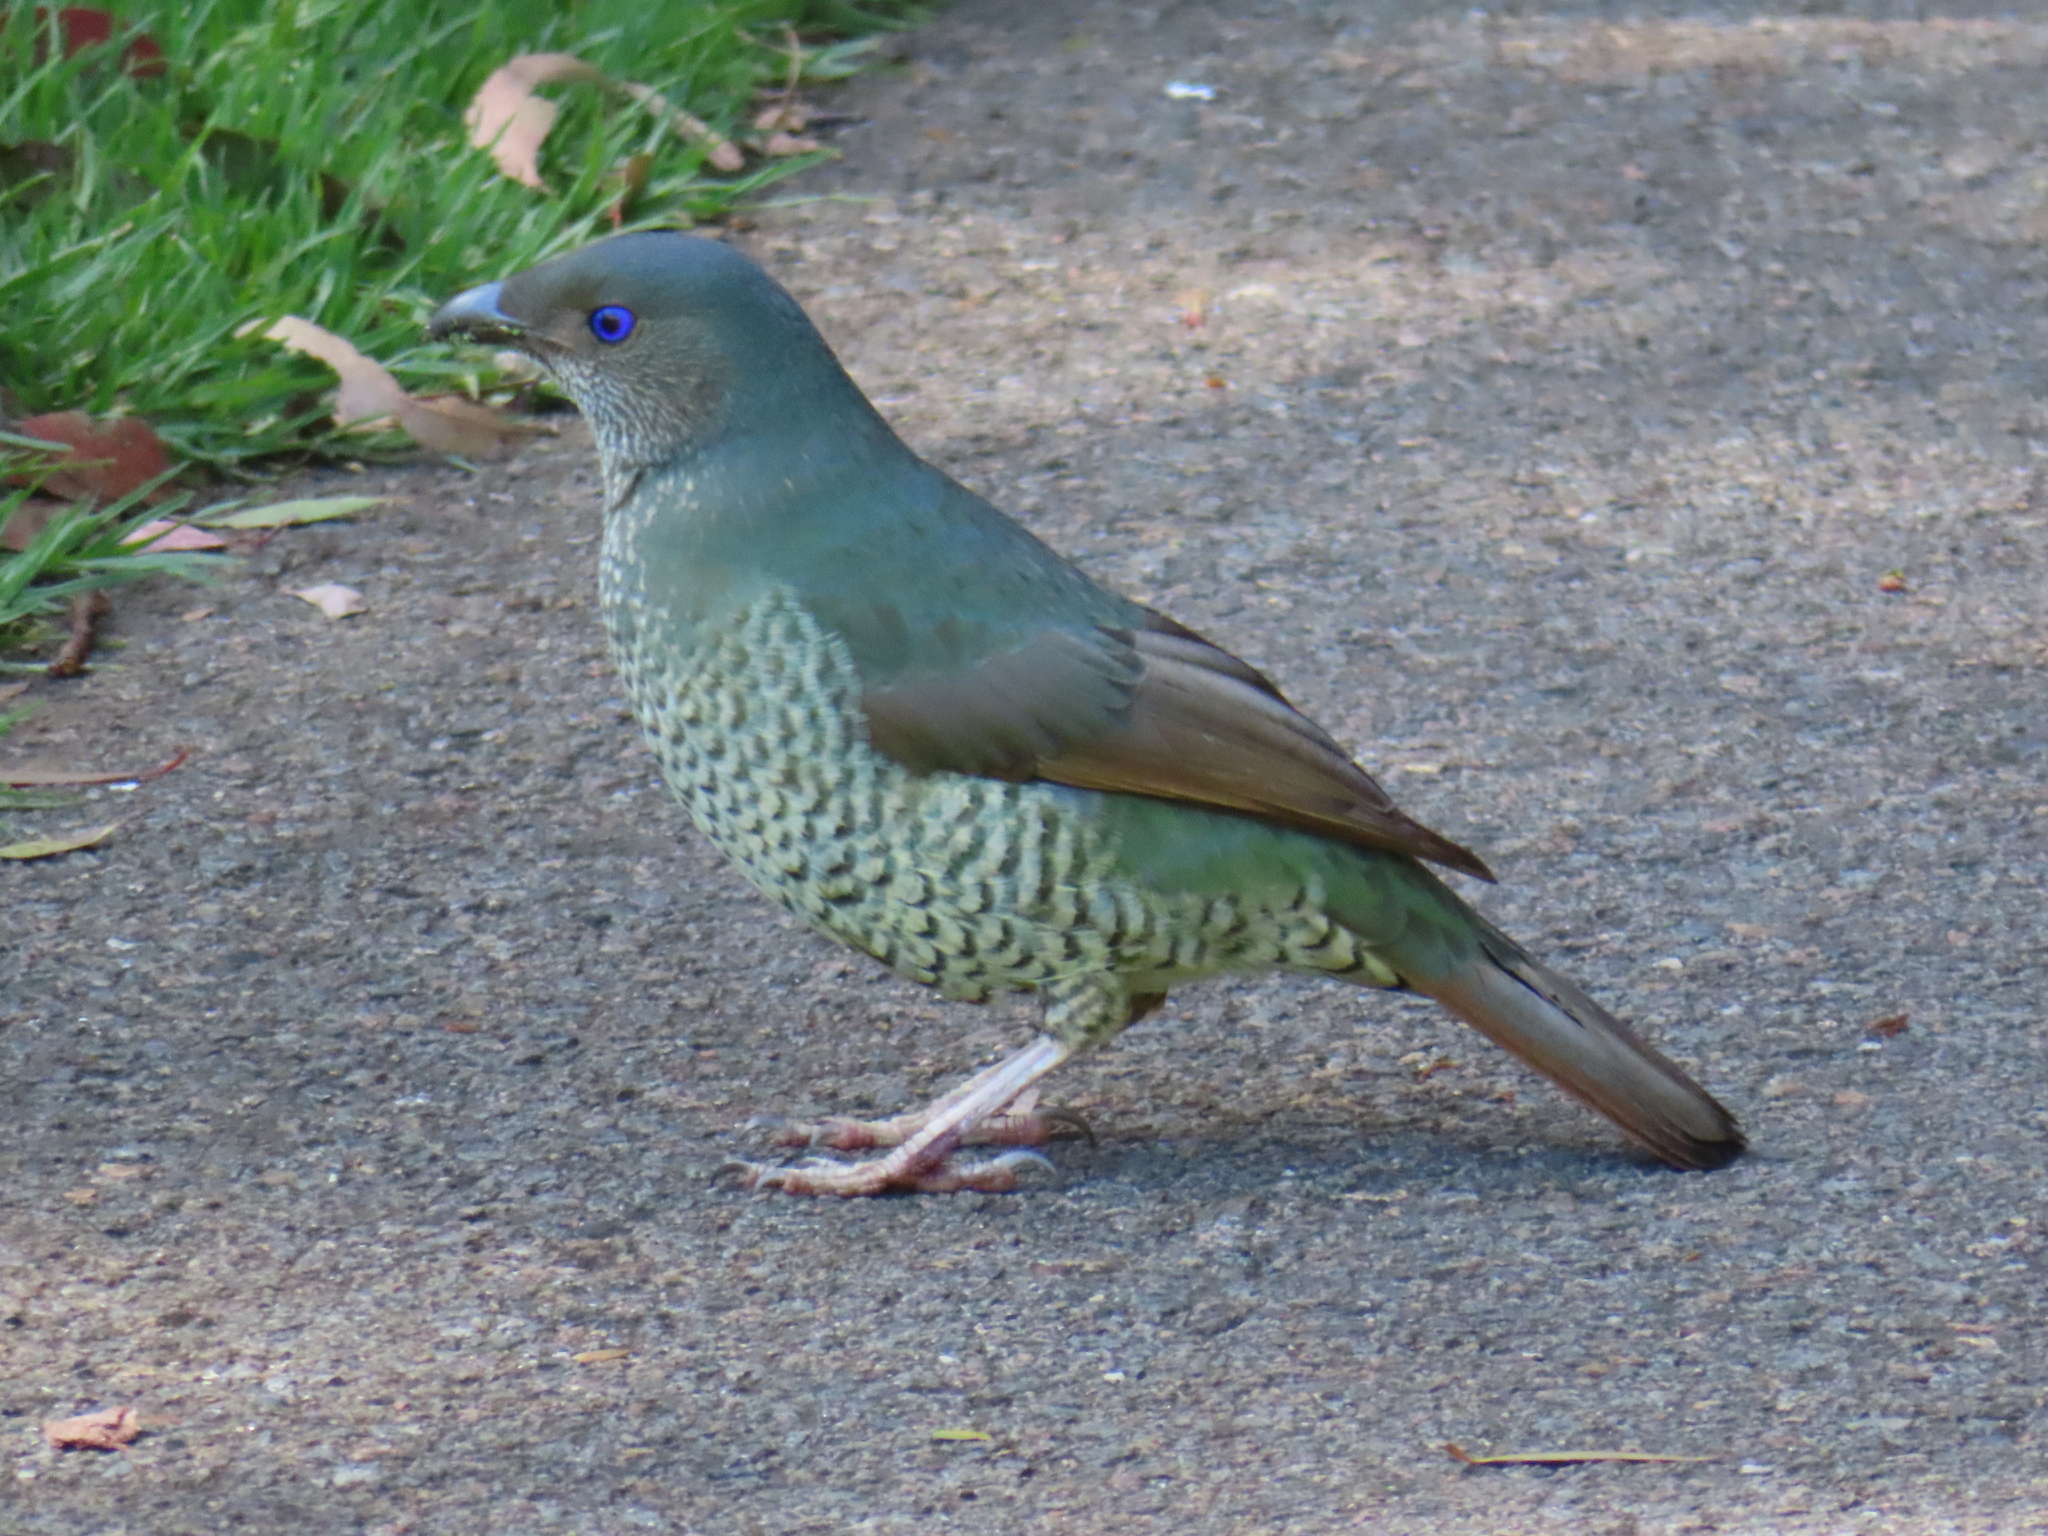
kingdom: Animalia
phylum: Chordata
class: Aves
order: Passeriformes
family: Ptilonorhynchidae
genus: Ptilonorhynchus
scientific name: Ptilonorhynchus violaceus
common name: Satin bowerbird
